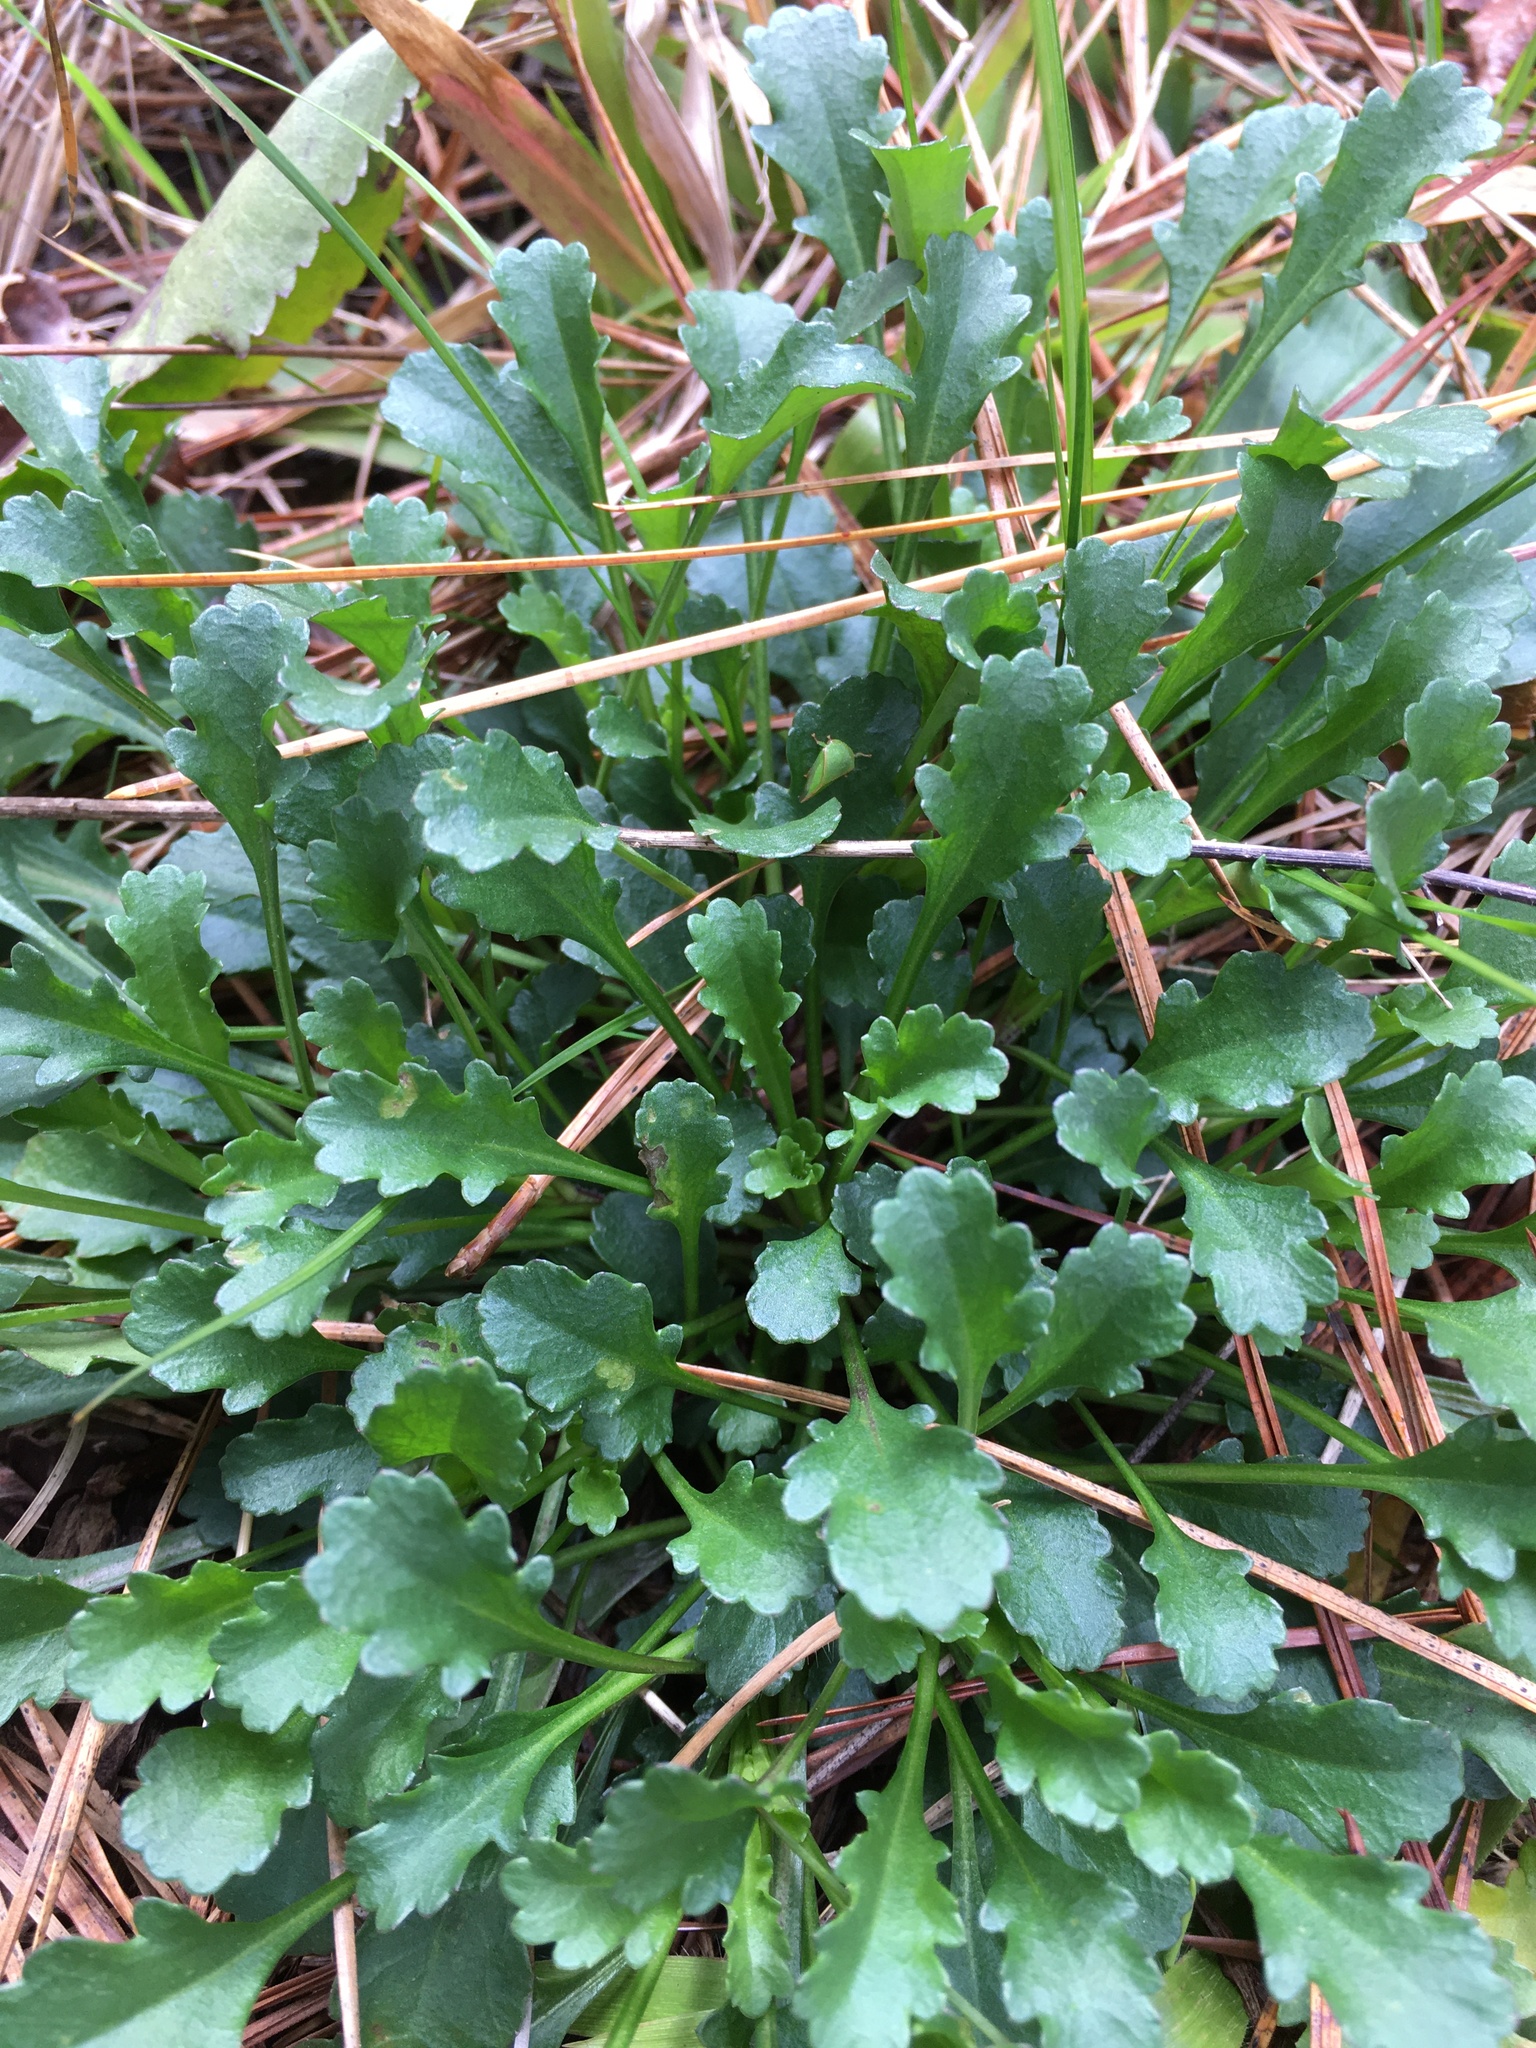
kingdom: Plantae
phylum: Tracheophyta
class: Magnoliopsida
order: Asterales
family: Asteraceae
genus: Leucanthemum
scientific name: Leucanthemum vulgare
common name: Oxeye daisy
